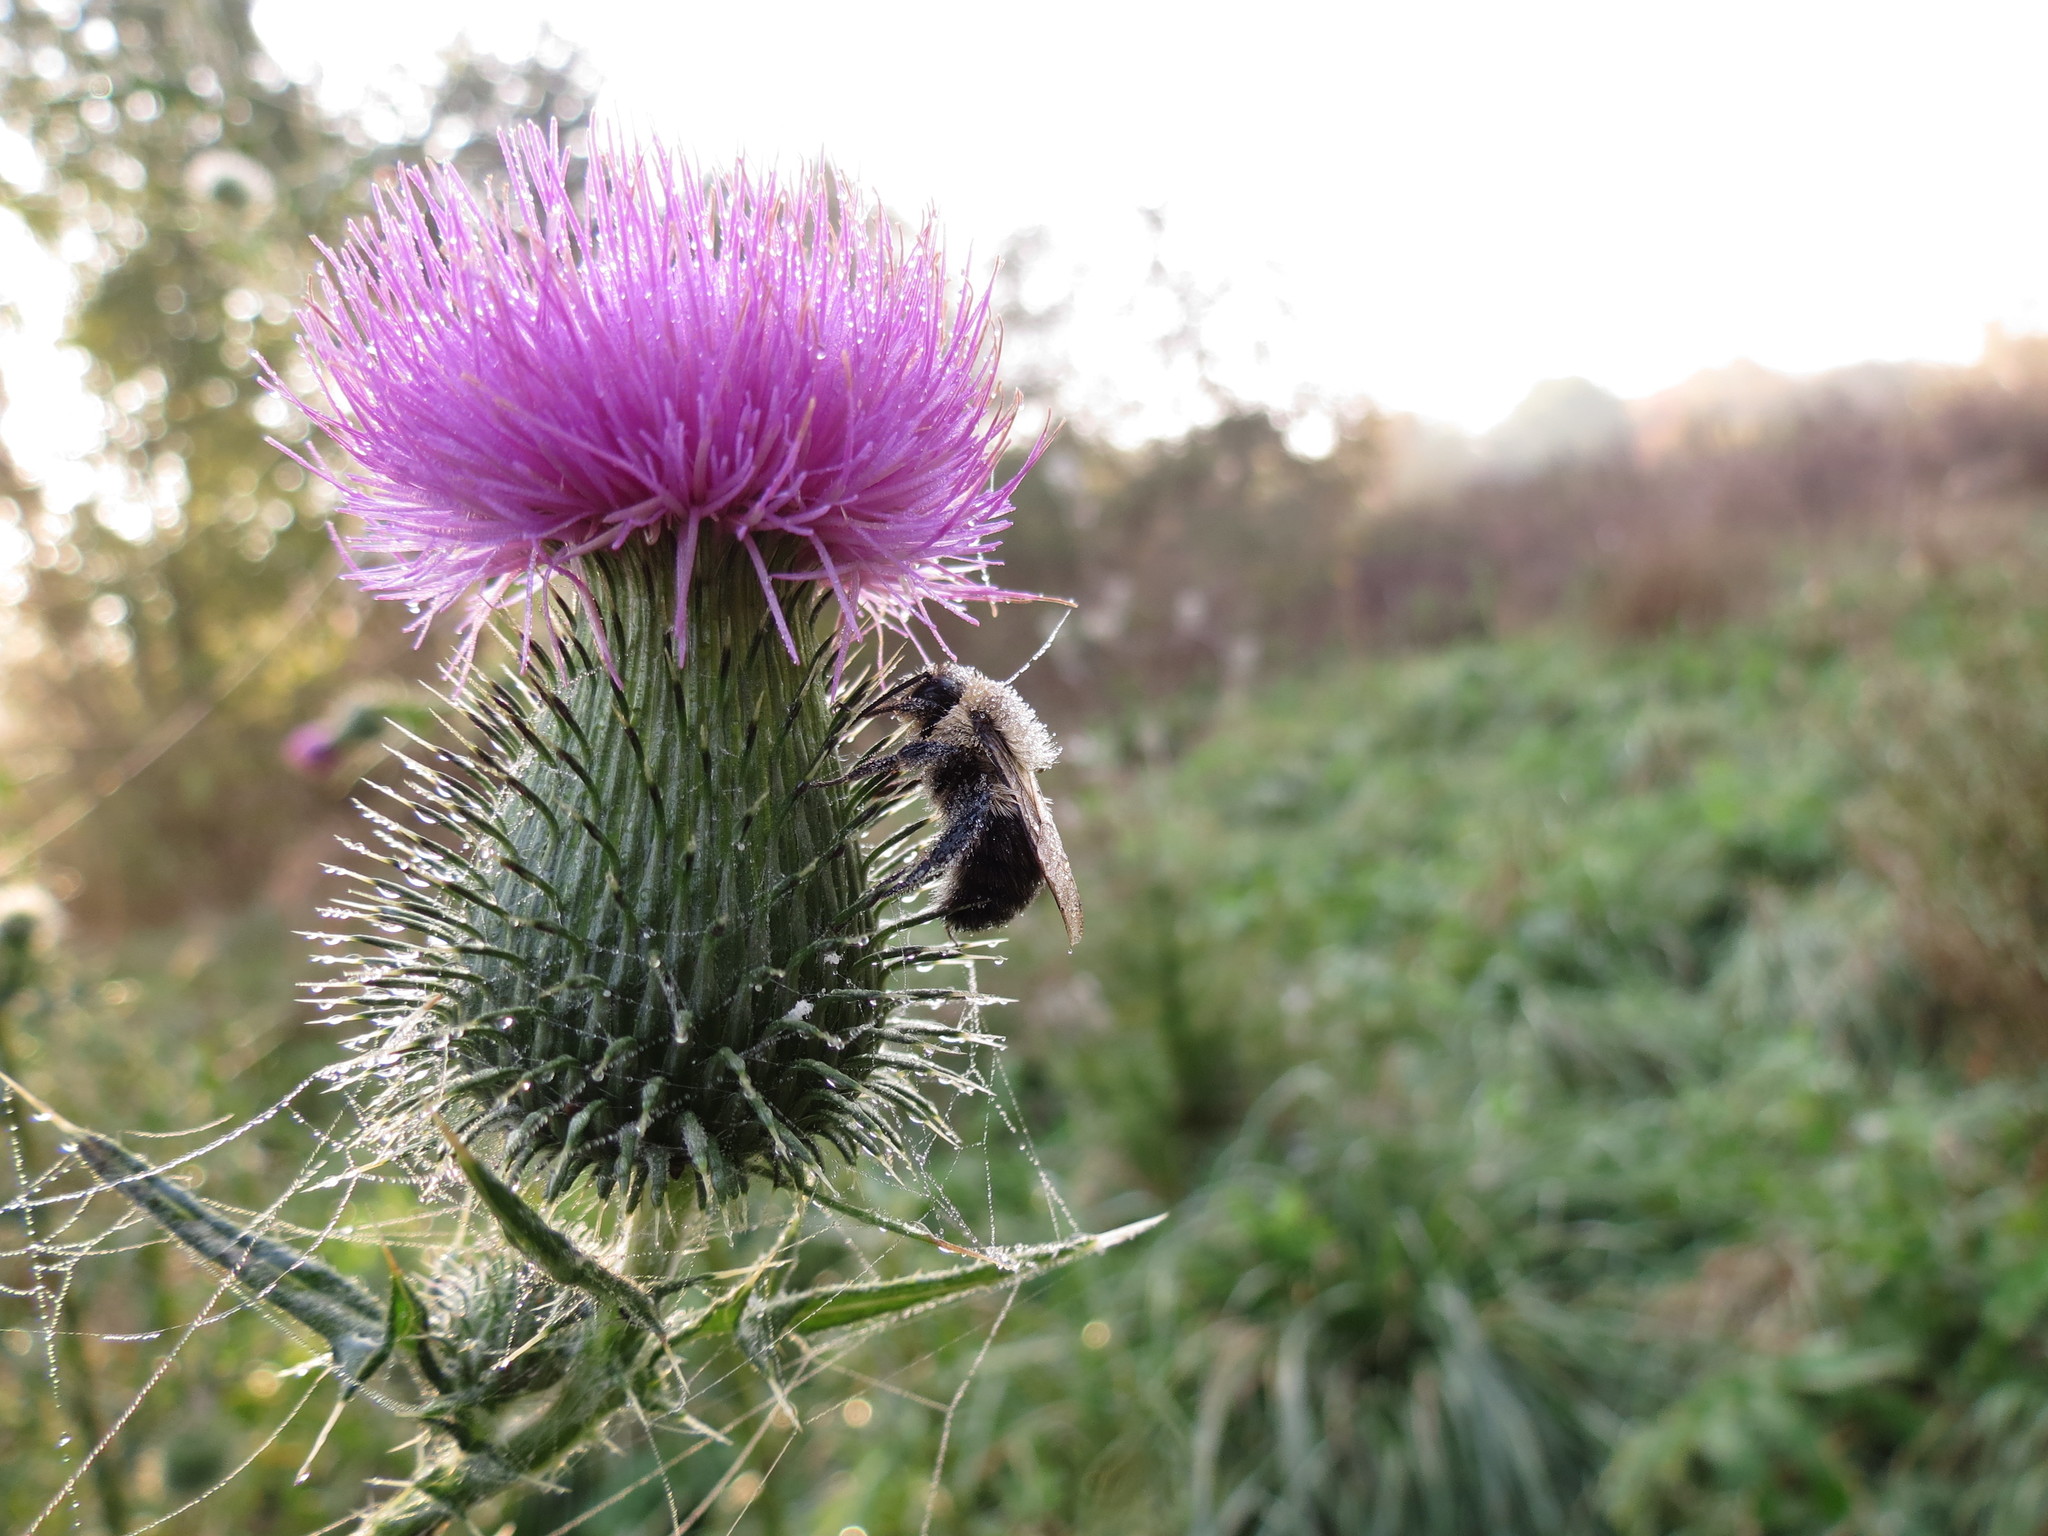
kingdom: Animalia
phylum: Arthropoda
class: Insecta
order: Hymenoptera
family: Apidae
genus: Bombus
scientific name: Bombus impatiens
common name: Common eastern bumble bee
